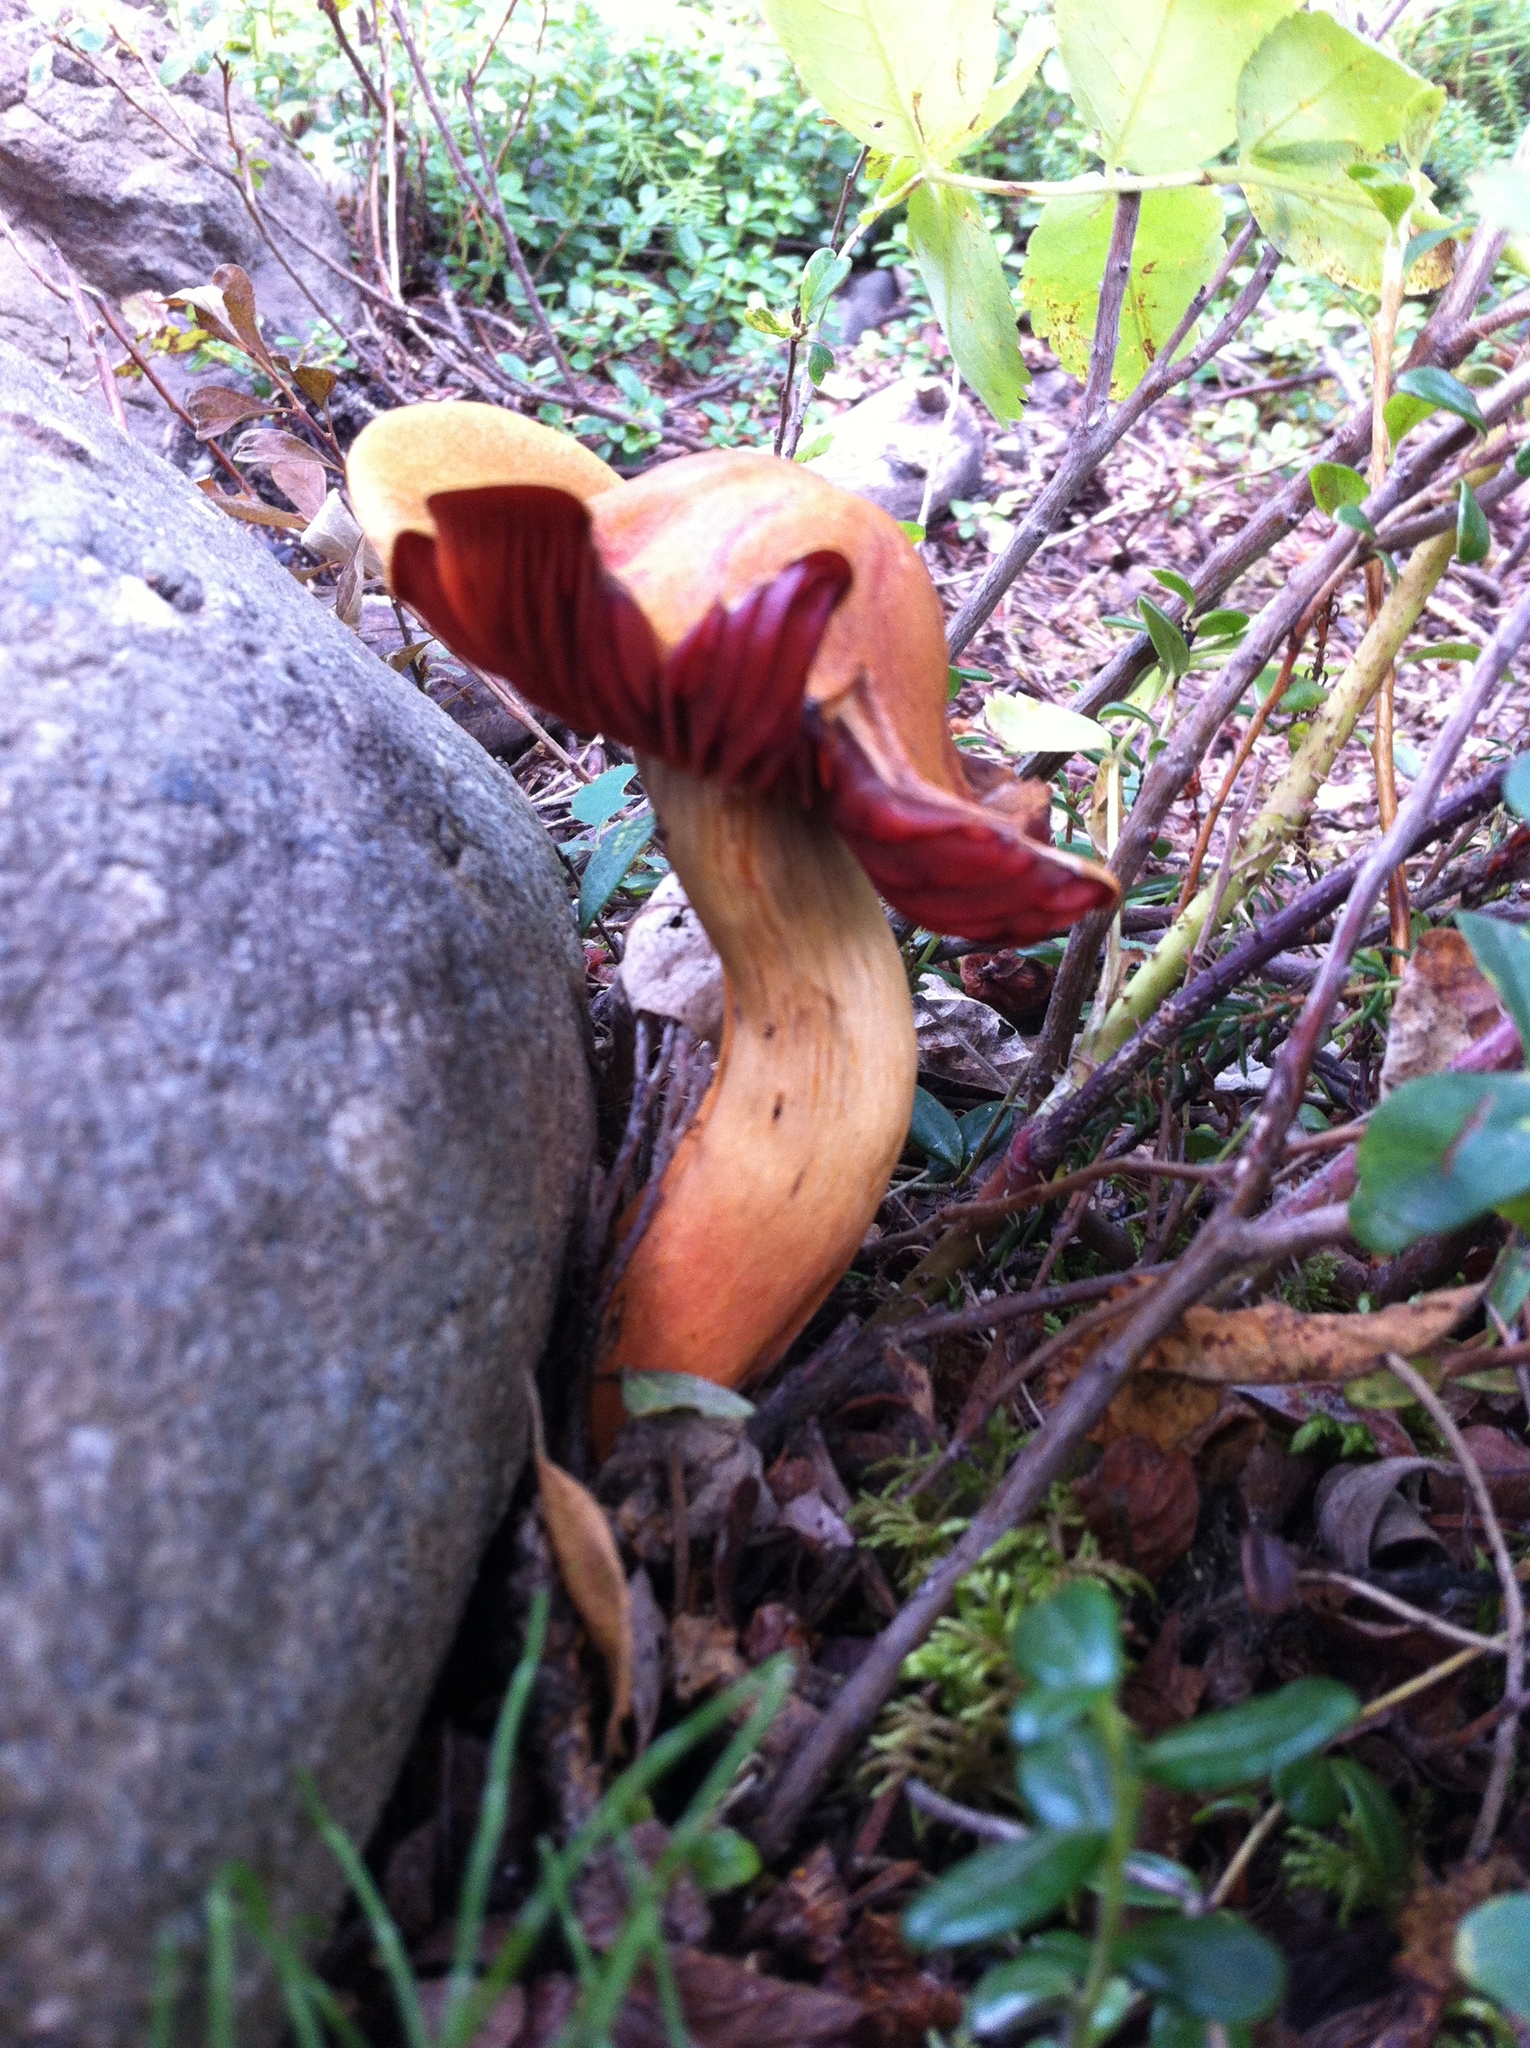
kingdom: Fungi
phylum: Basidiomycota
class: Agaricomycetes
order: Agaricales
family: Cortinariaceae
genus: Cortinarius
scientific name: Cortinarius semisanguineus
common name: Surprise webcap
